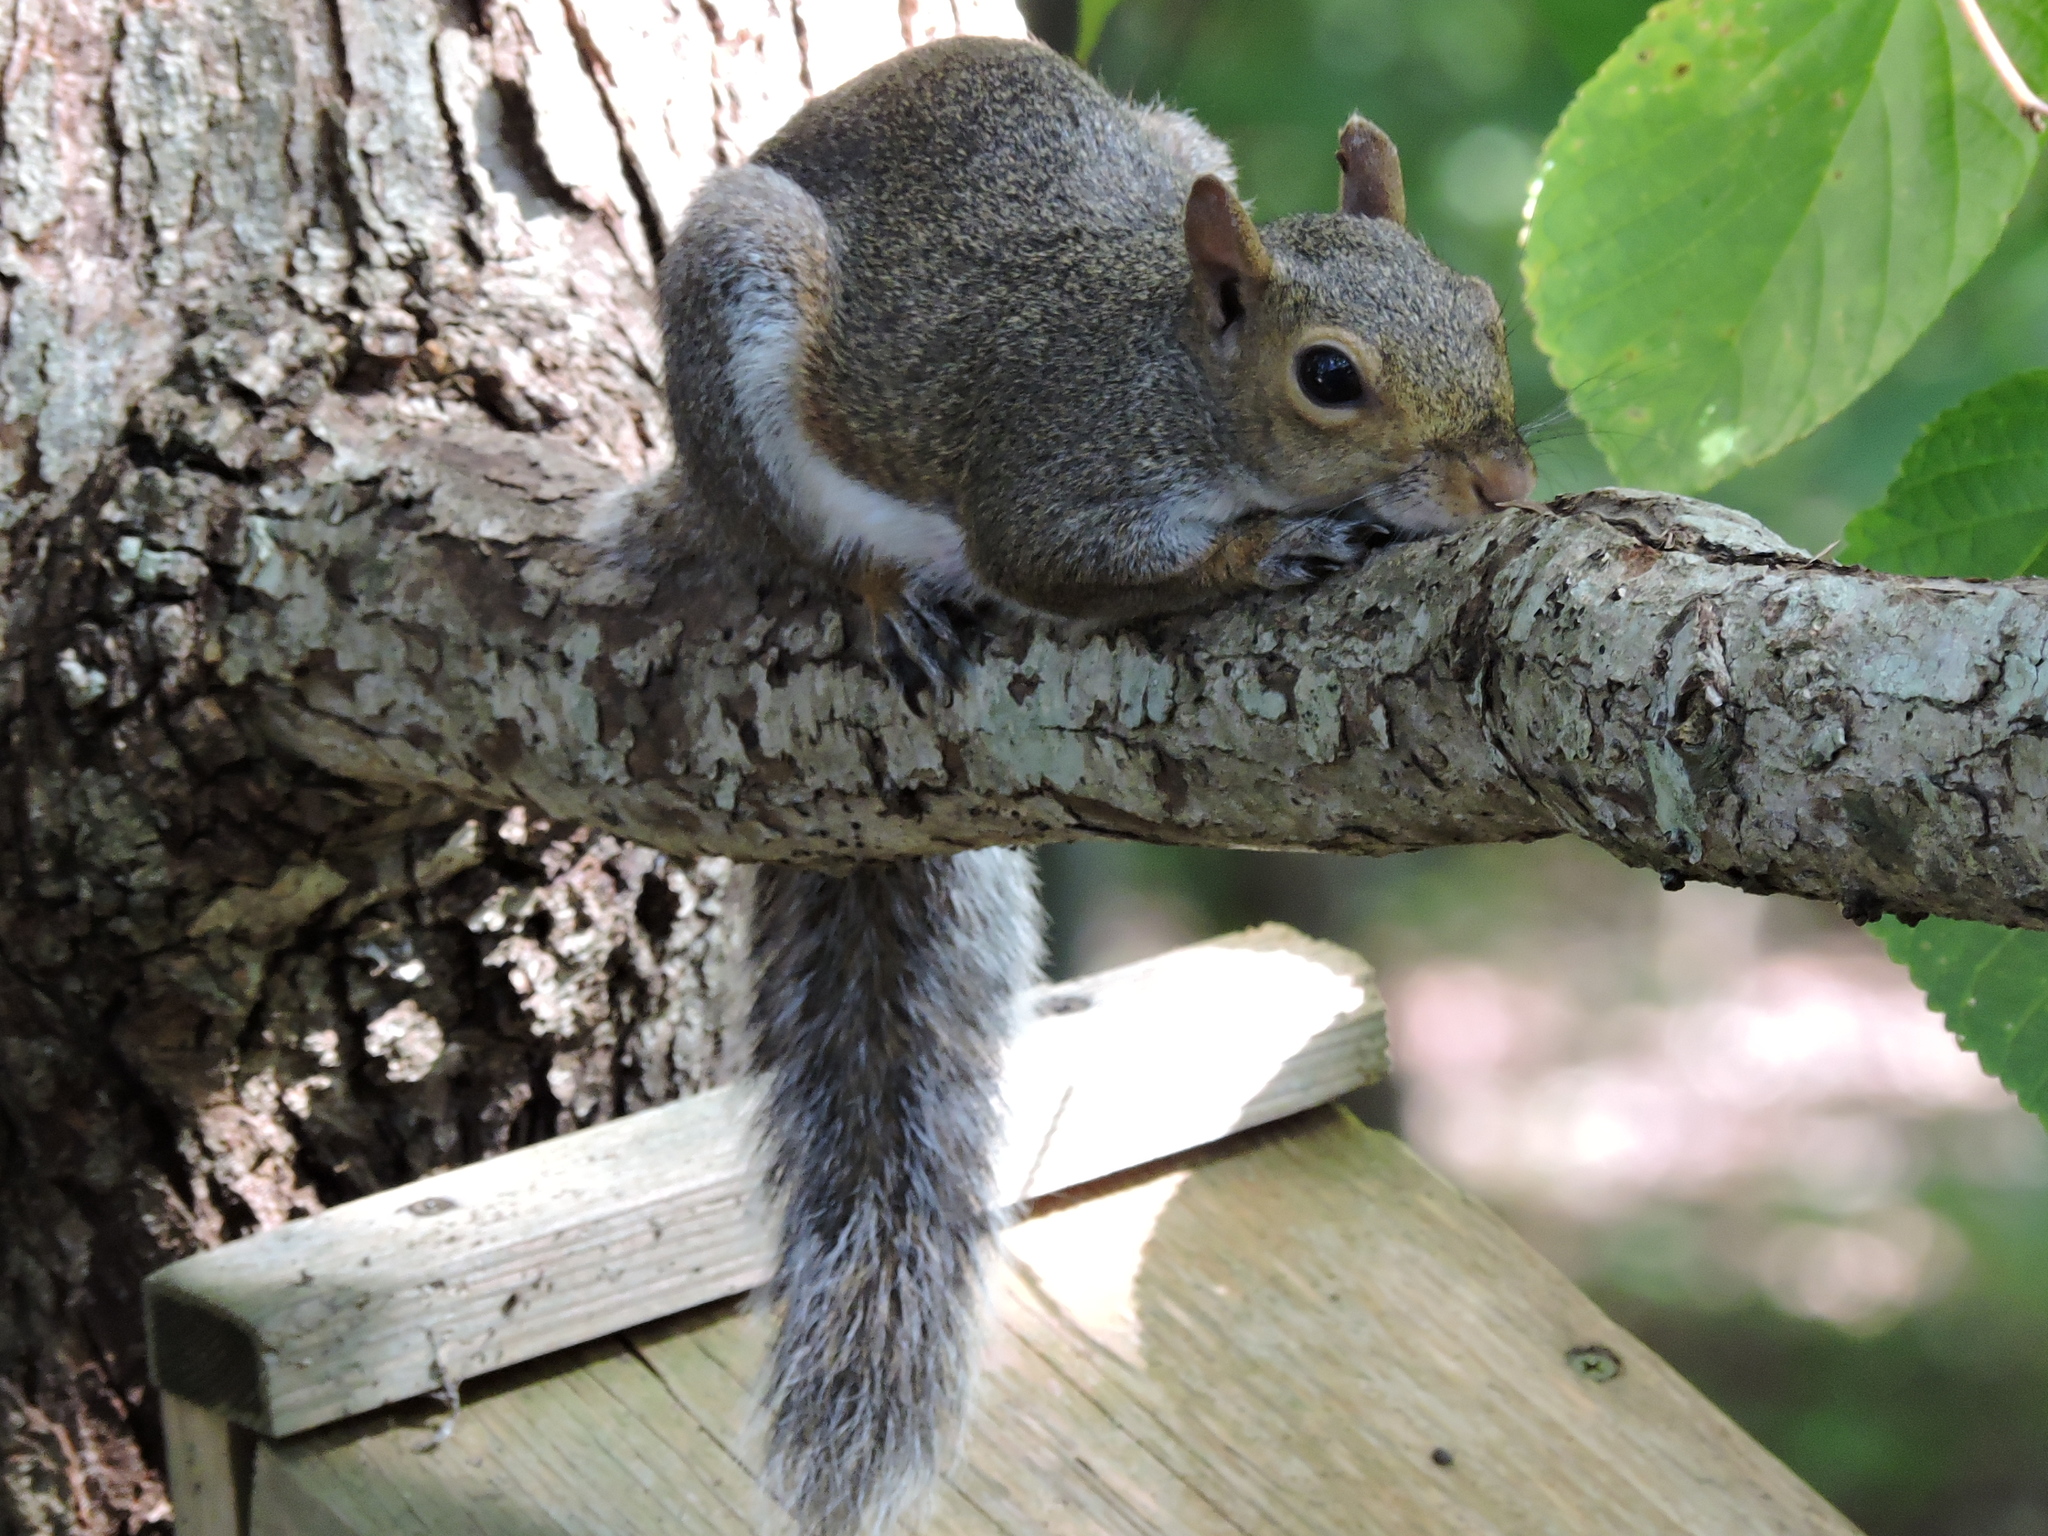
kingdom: Animalia
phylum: Chordata
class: Mammalia
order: Rodentia
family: Sciuridae
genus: Sciurus
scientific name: Sciurus carolinensis
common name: Eastern gray squirrel
